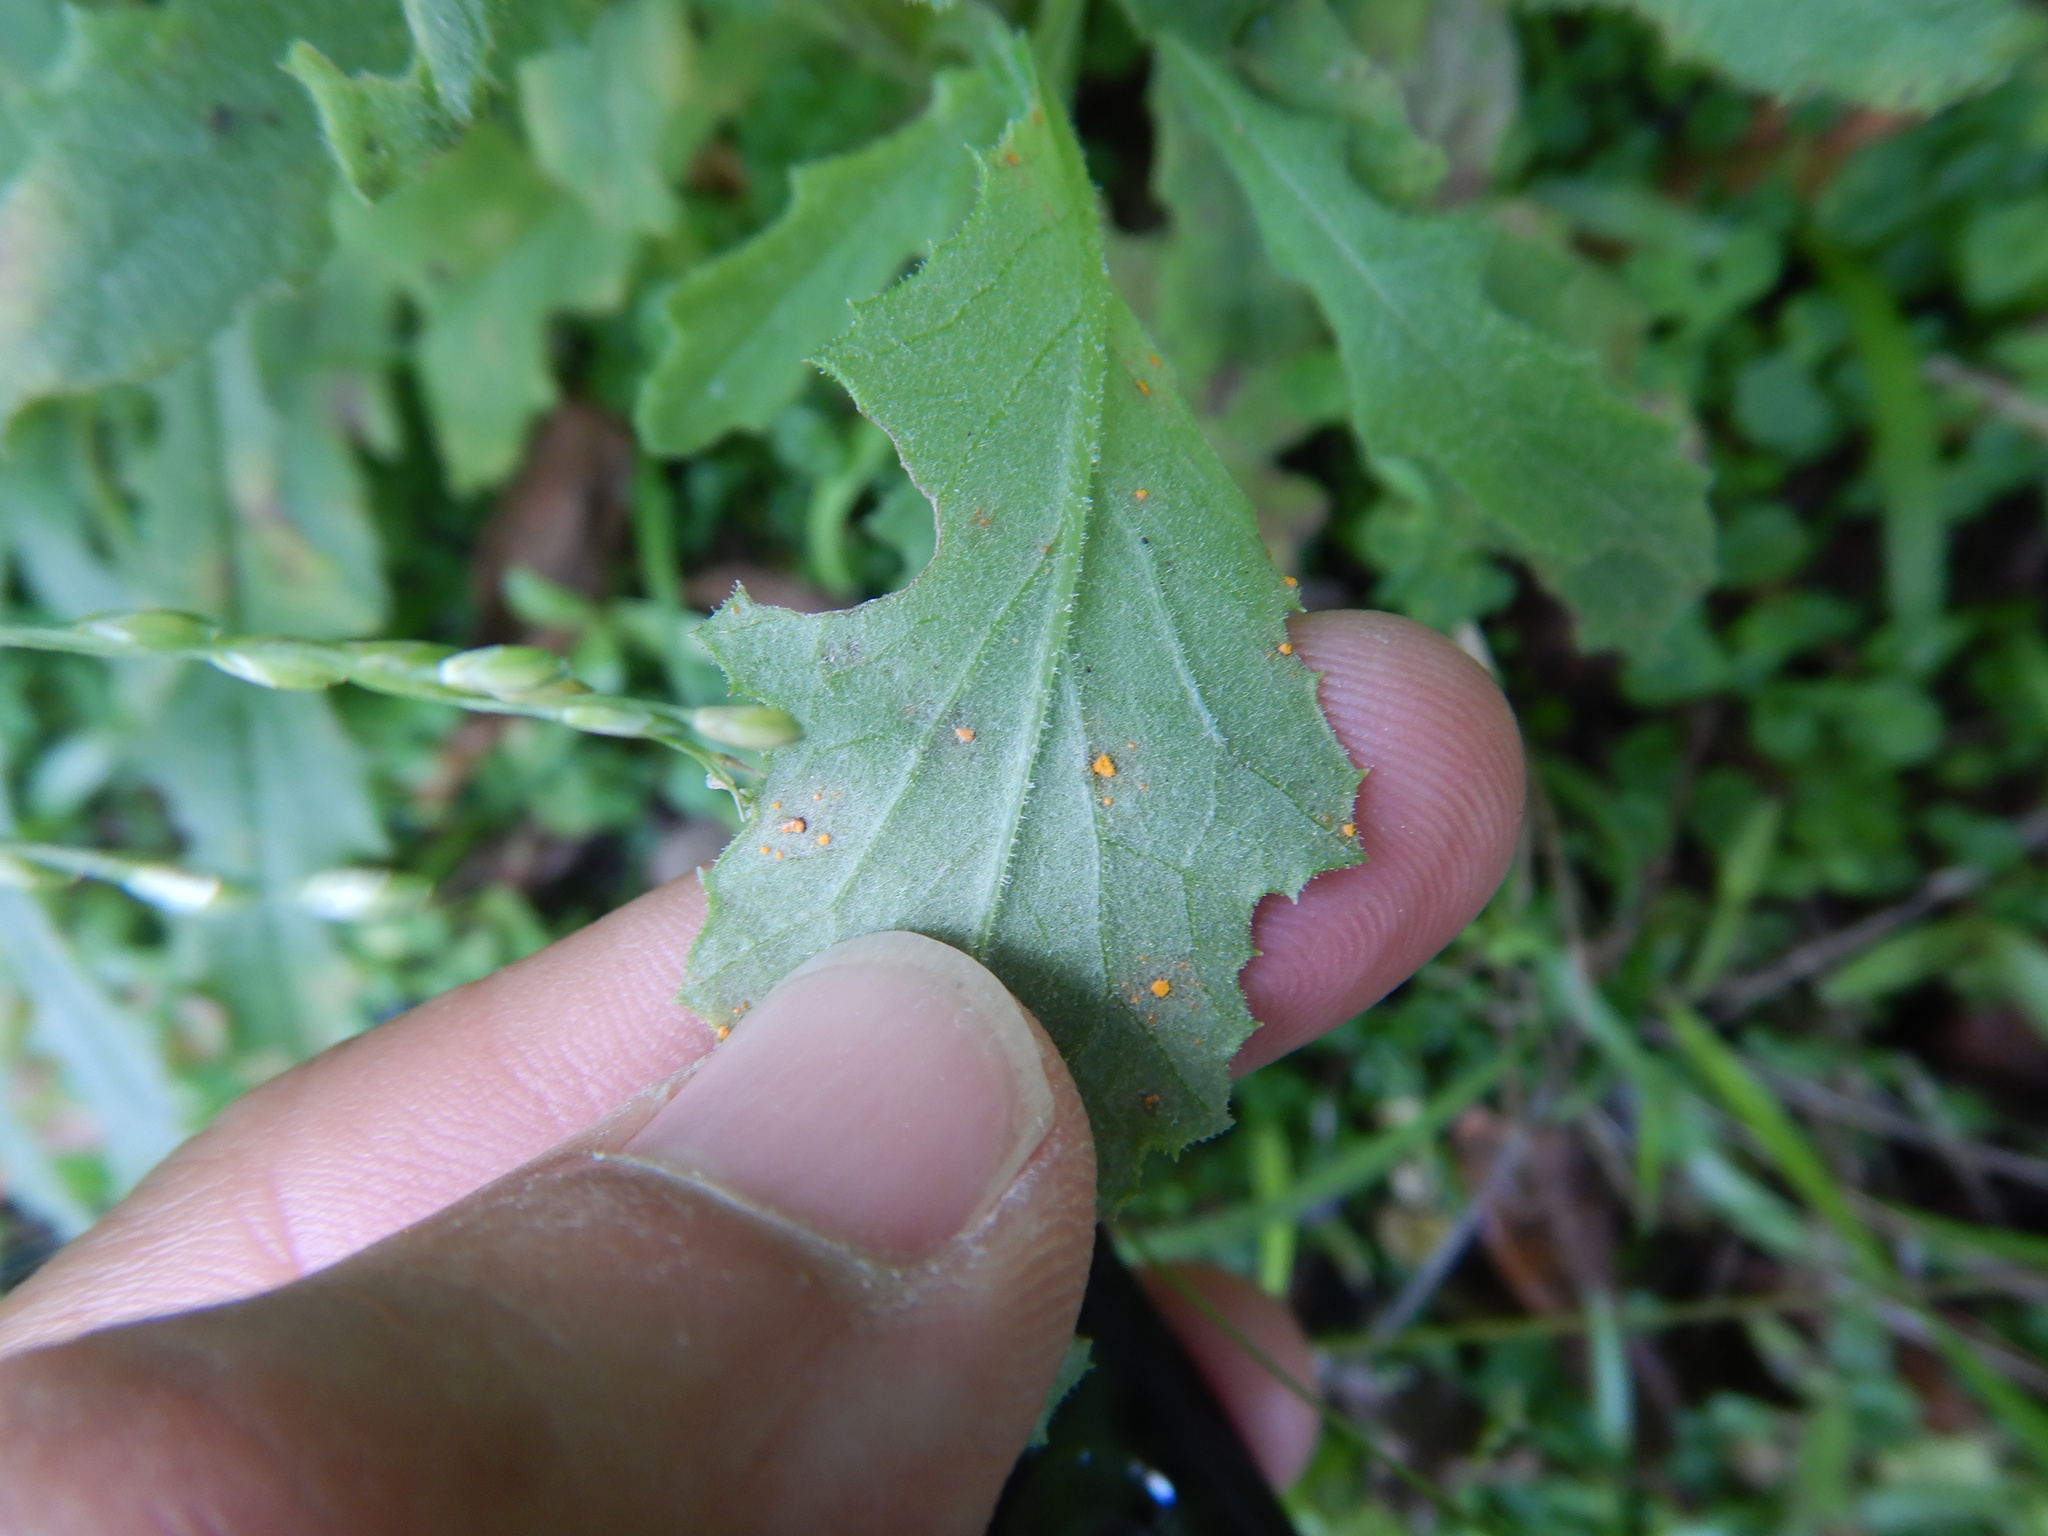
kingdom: Fungi
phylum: Basidiomycota
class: Pucciniomycetes
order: Pucciniales
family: Coleosporiaceae
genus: Coleosporium
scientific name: Coleosporium tussilaginis
